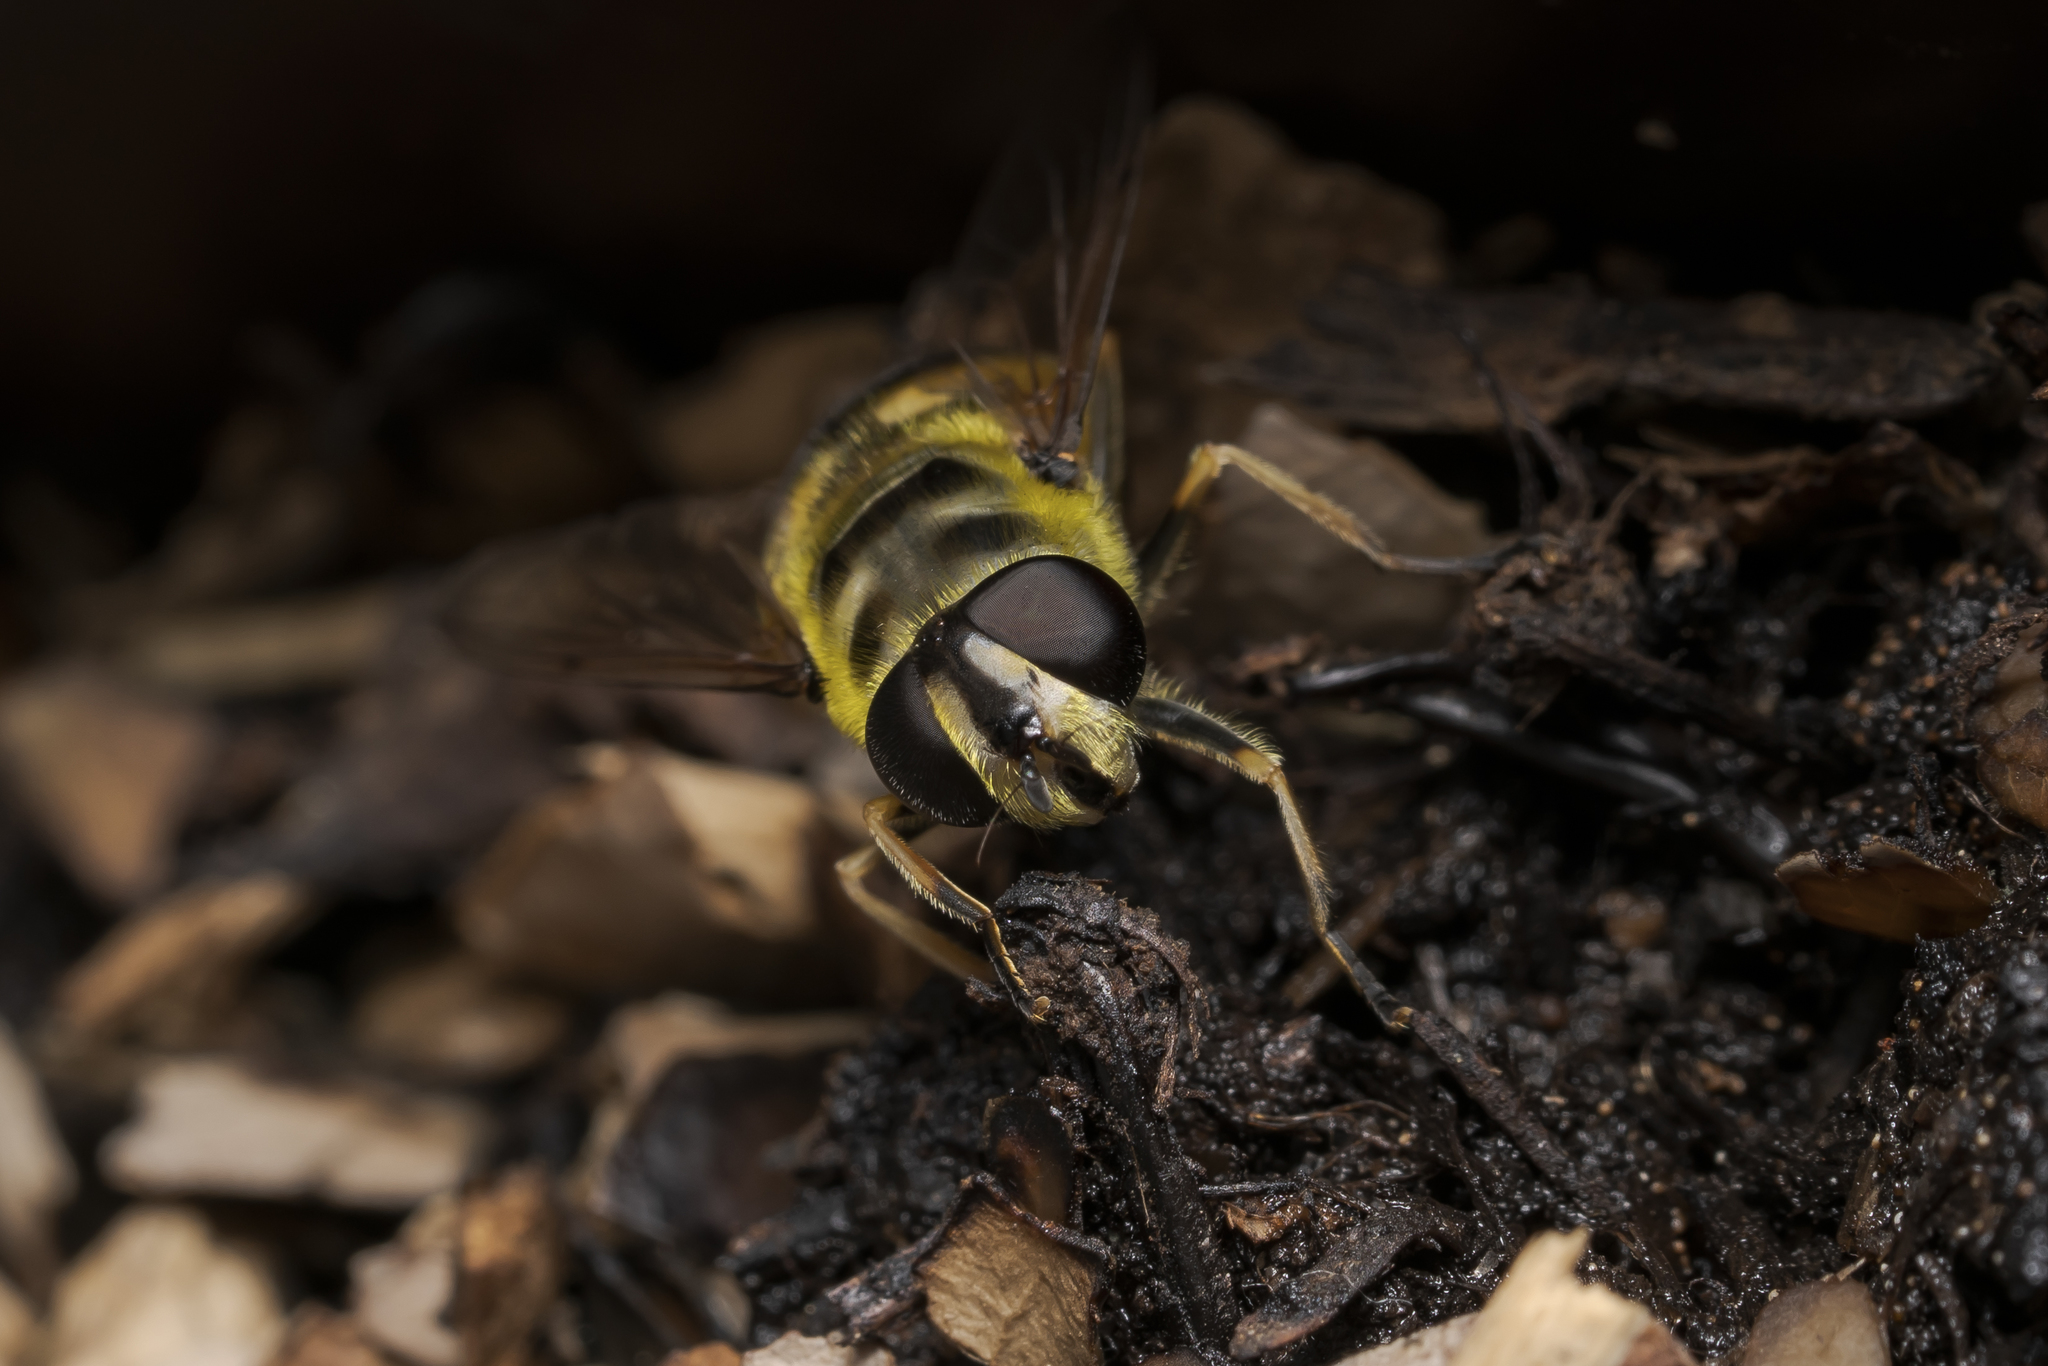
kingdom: Animalia
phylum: Arthropoda
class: Insecta
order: Diptera
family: Syrphidae
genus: Myathropa
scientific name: Myathropa florea
